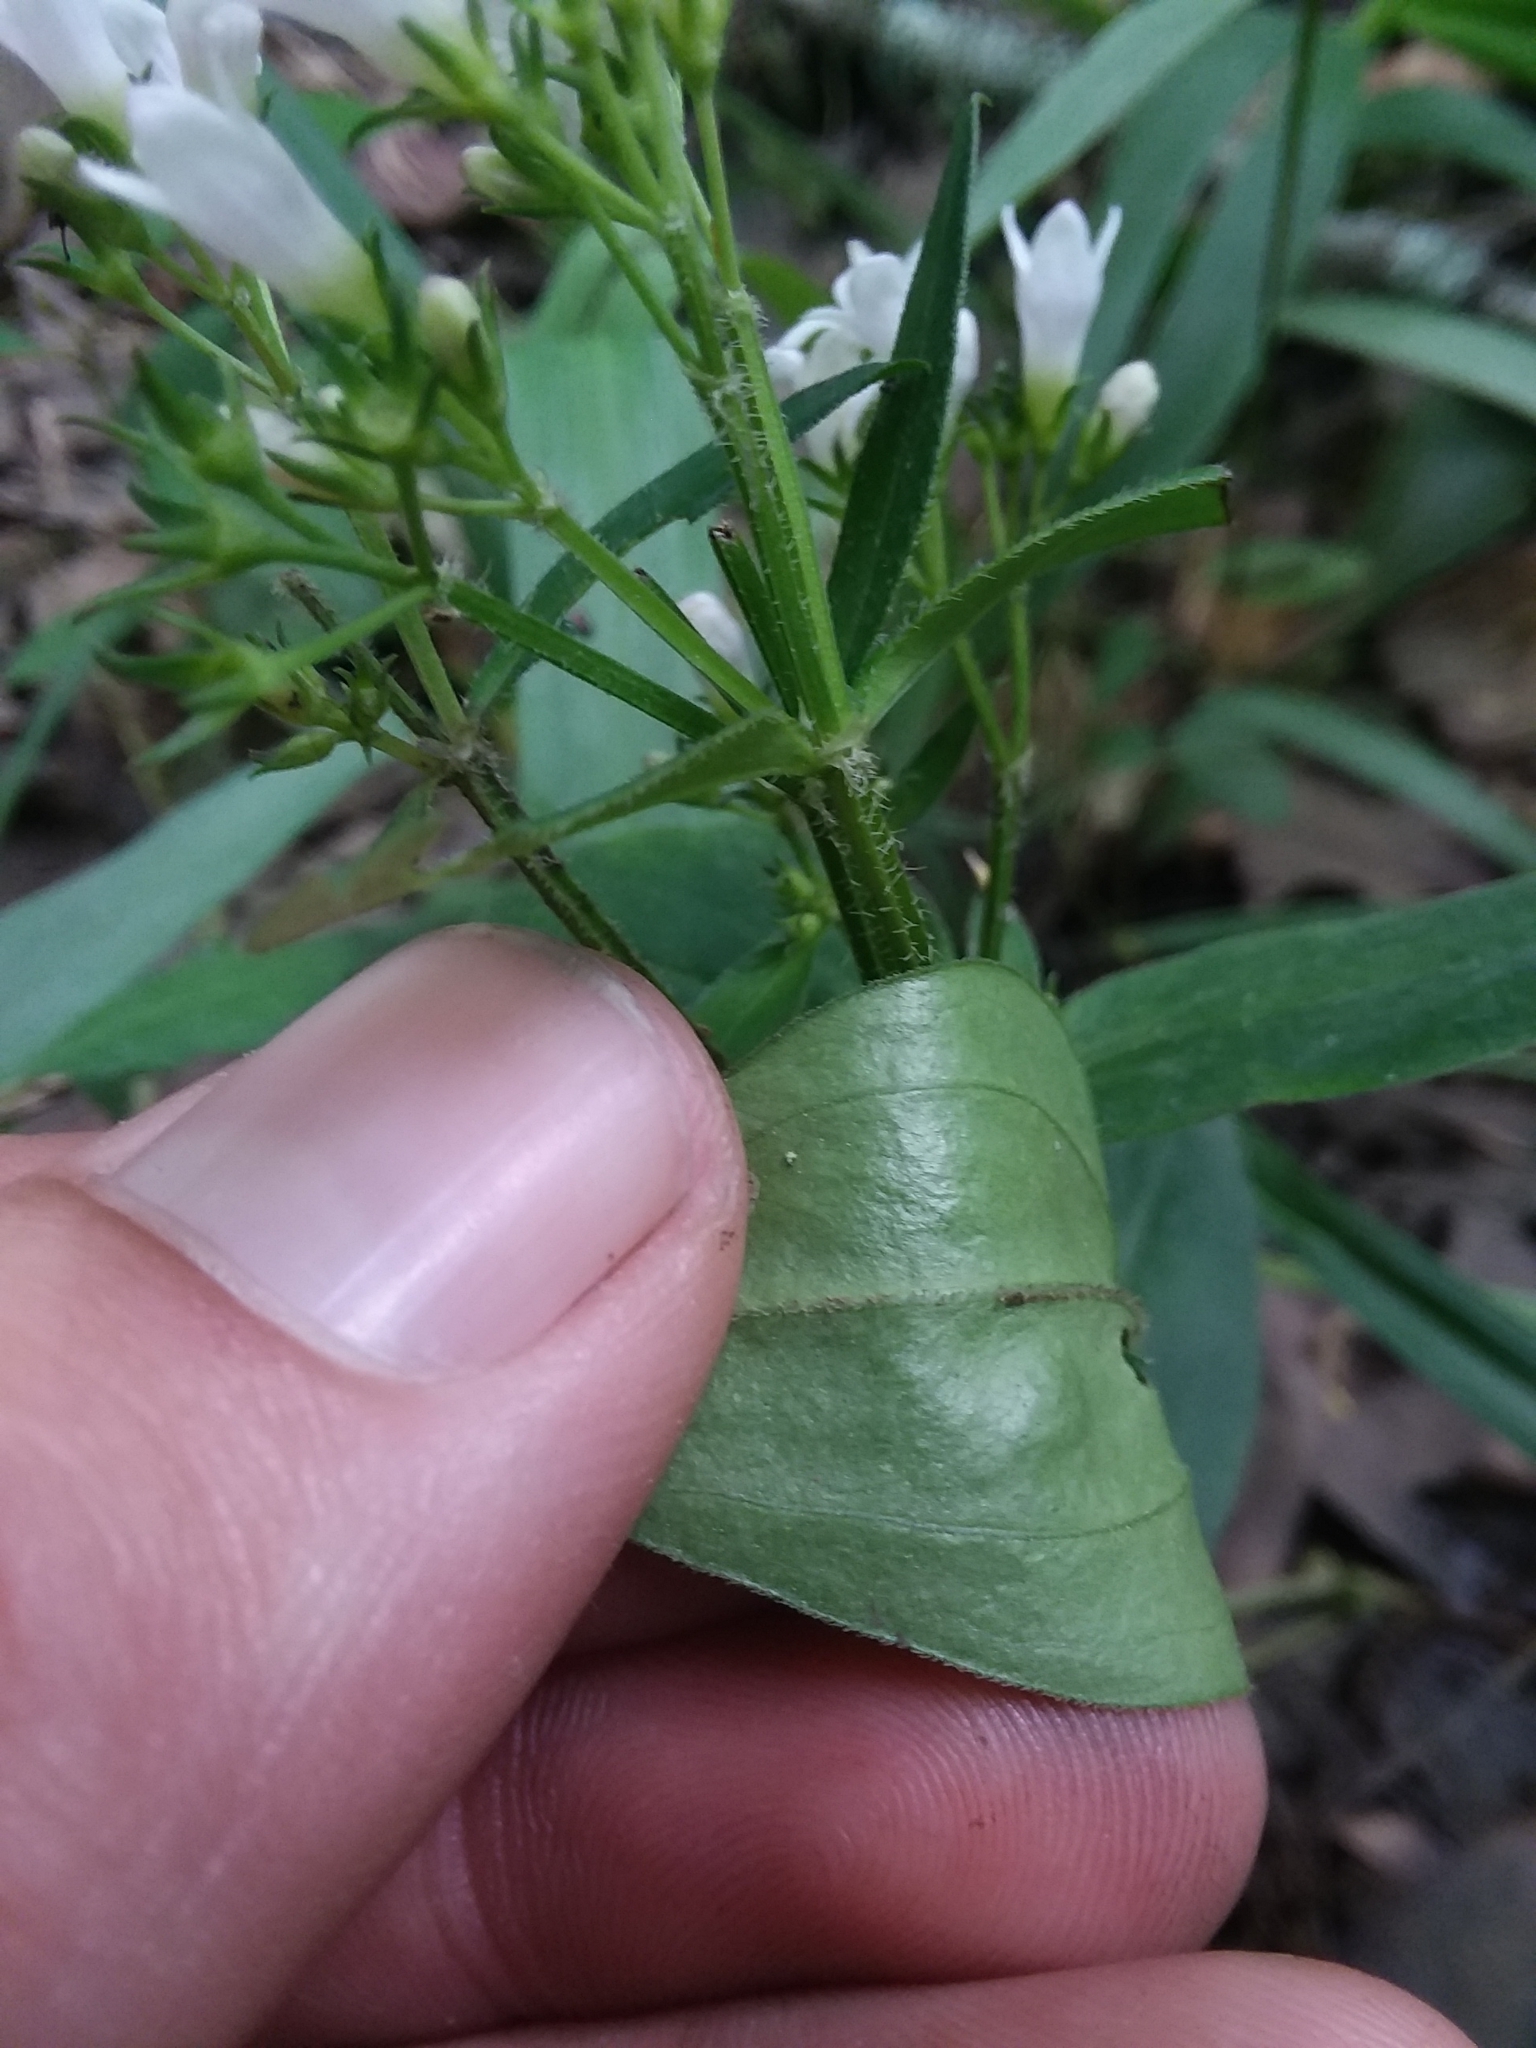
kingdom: Plantae
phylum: Tracheophyta
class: Magnoliopsida
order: Gentianales
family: Rubiaceae
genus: Houstonia
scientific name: Houstonia purpurea
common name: Summer bluet
